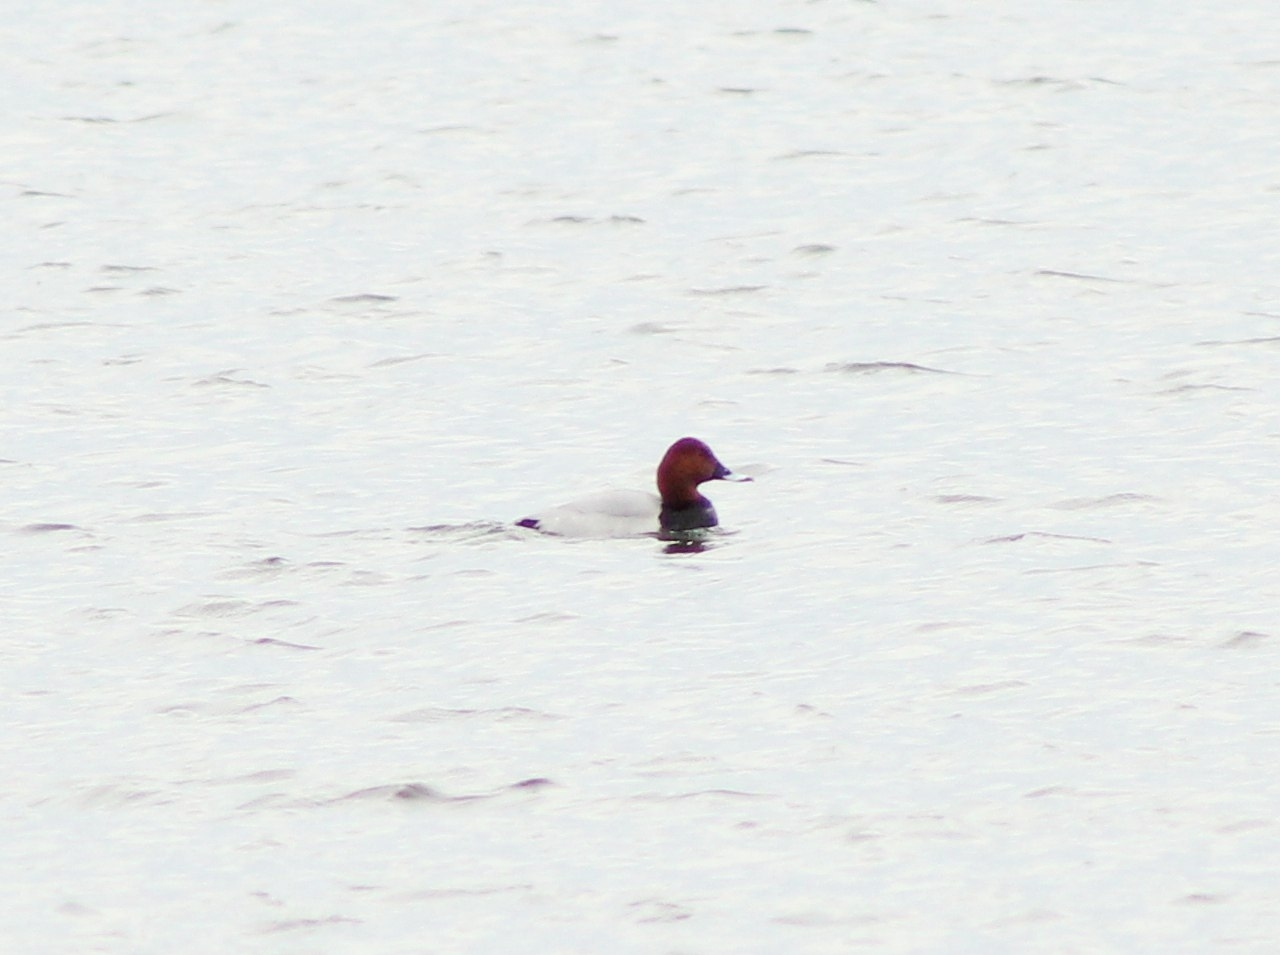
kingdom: Animalia
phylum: Chordata
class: Aves
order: Anseriformes
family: Anatidae
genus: Aythya
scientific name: Aythya ferina
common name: Common pochard
